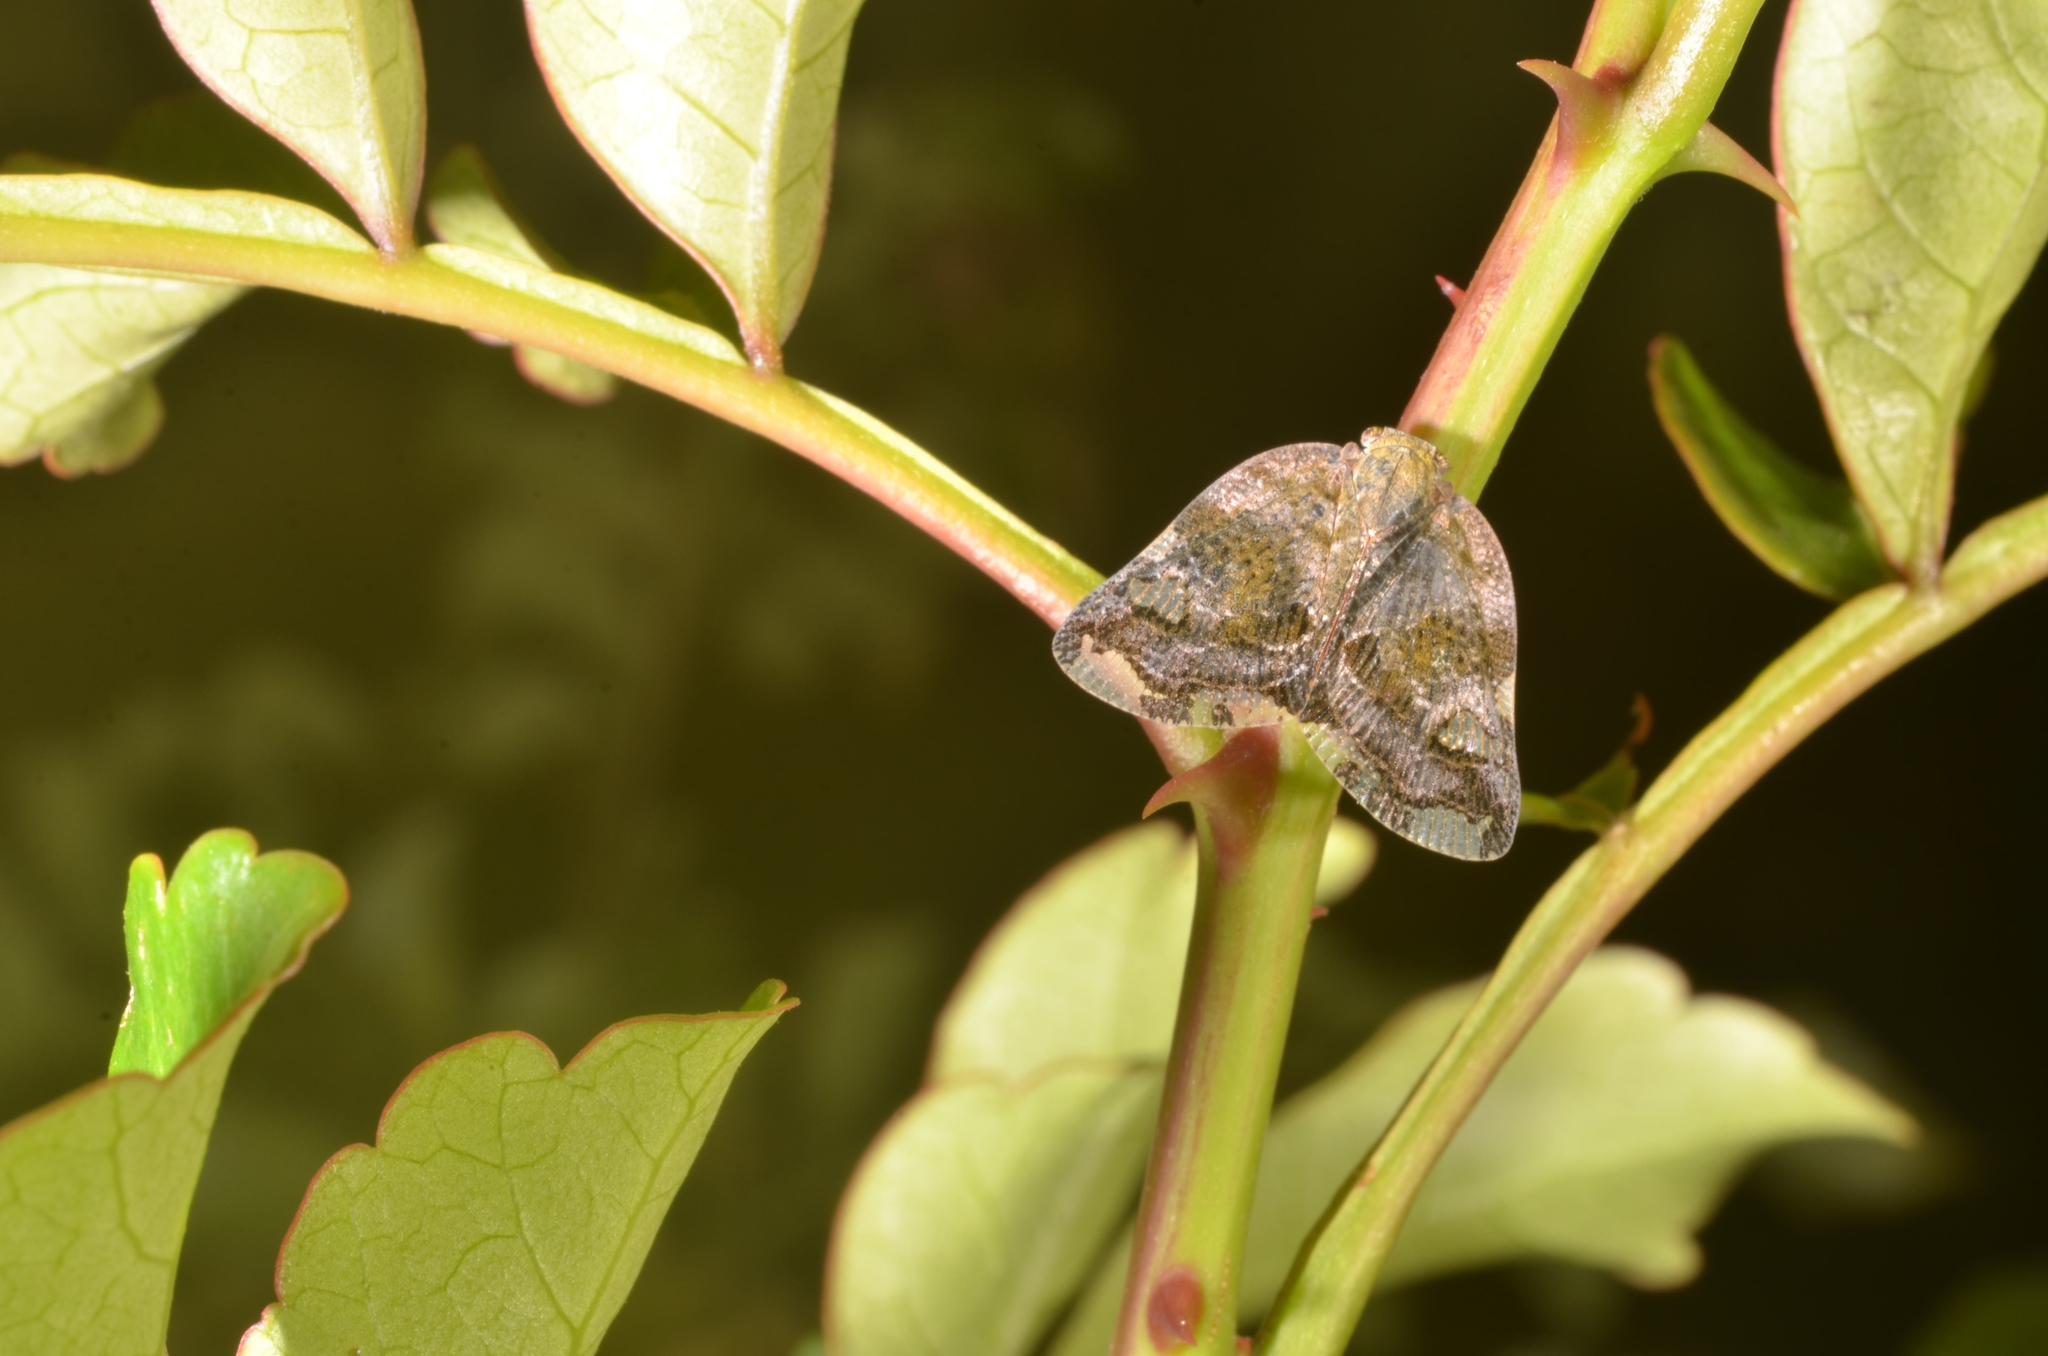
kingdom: Animalia
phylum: Arthropoda
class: Insecta
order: Hemiptera
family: Ricaniidae
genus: Ricania
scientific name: Ricania speculum
